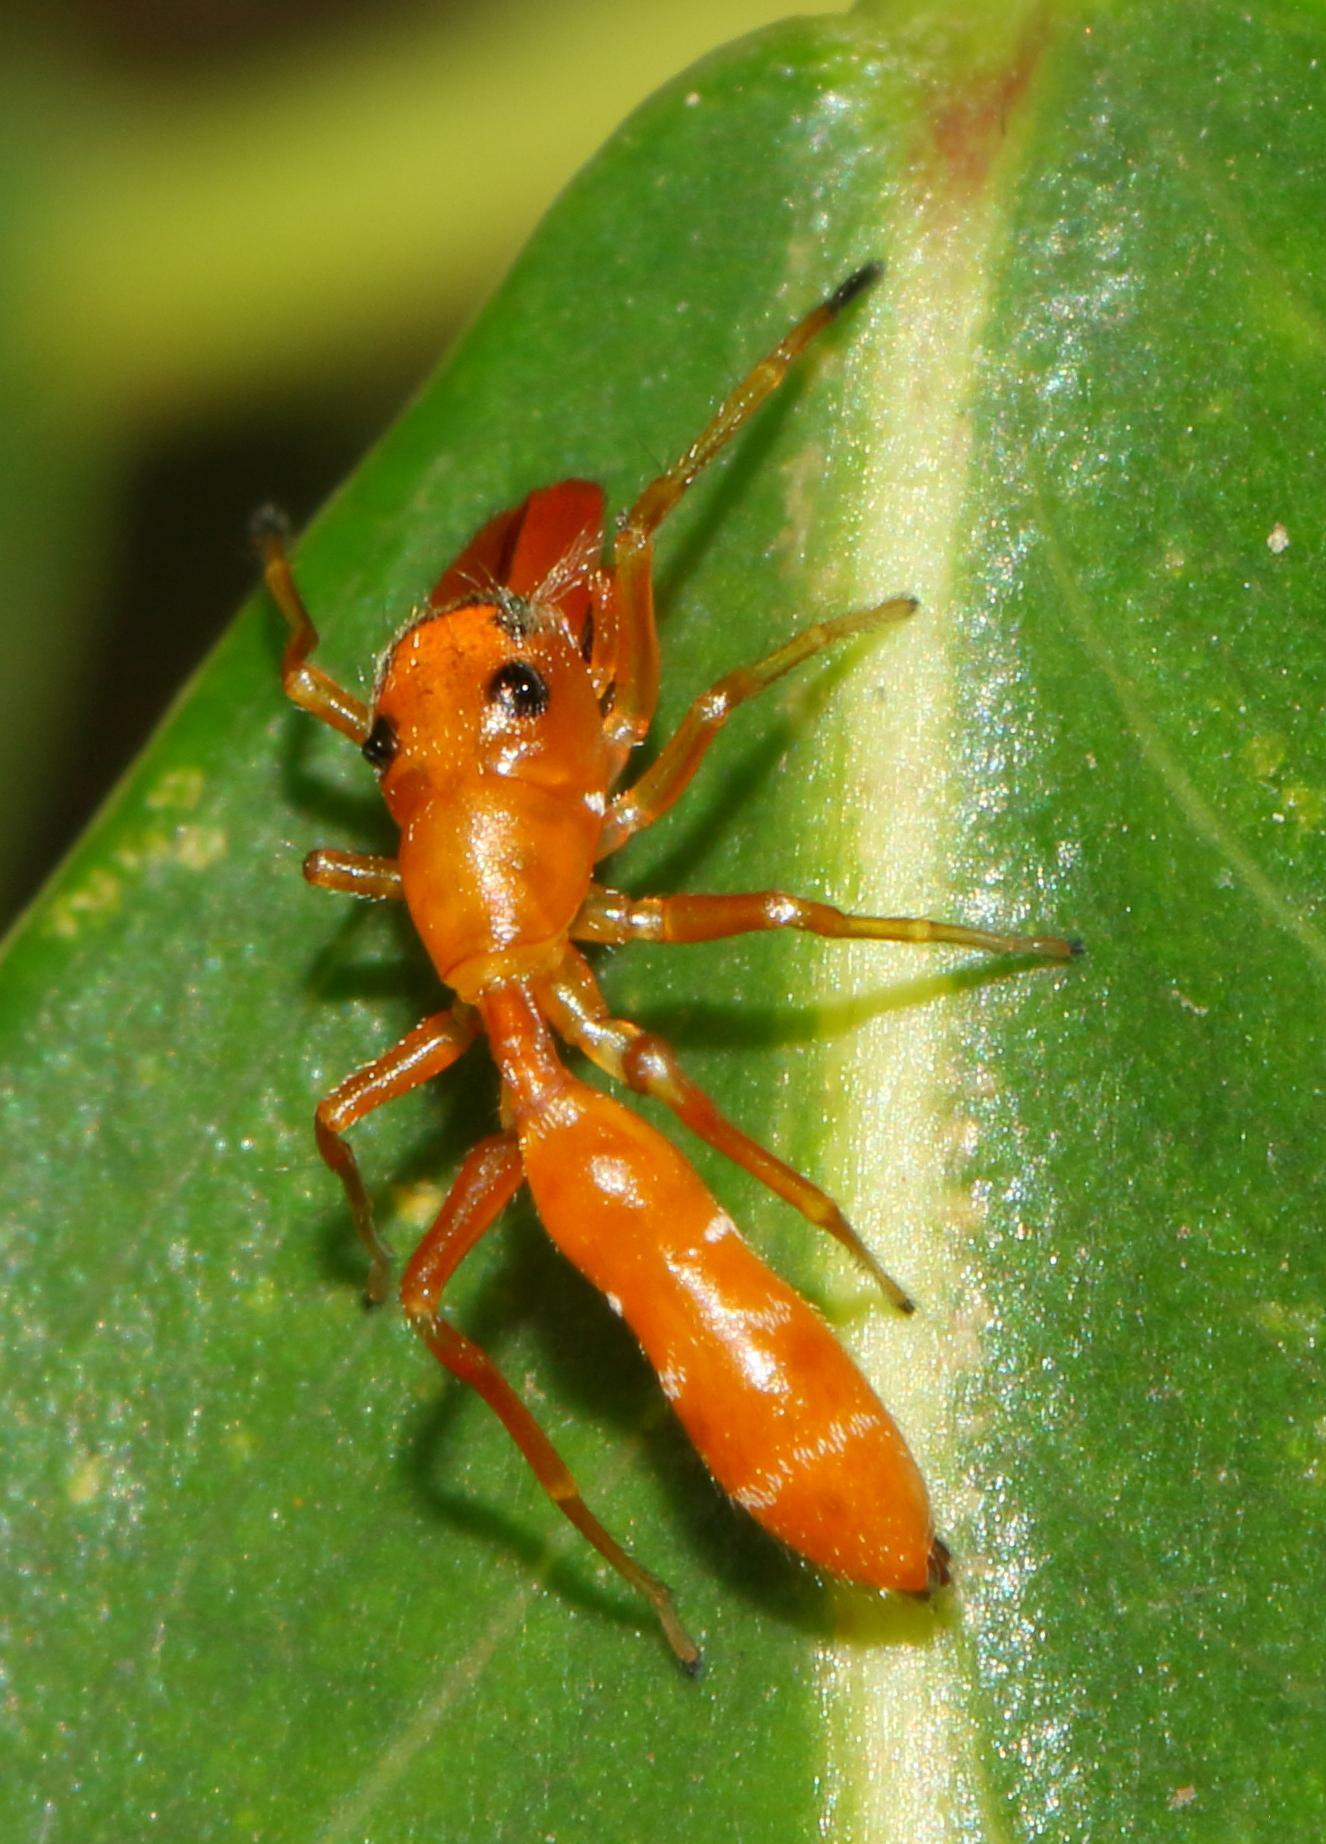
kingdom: Animalia
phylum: Arthropoda
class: Arachnida
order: Araneae
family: Salticidae
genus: Myrmarachne
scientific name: Myrmarachne ichneumon
